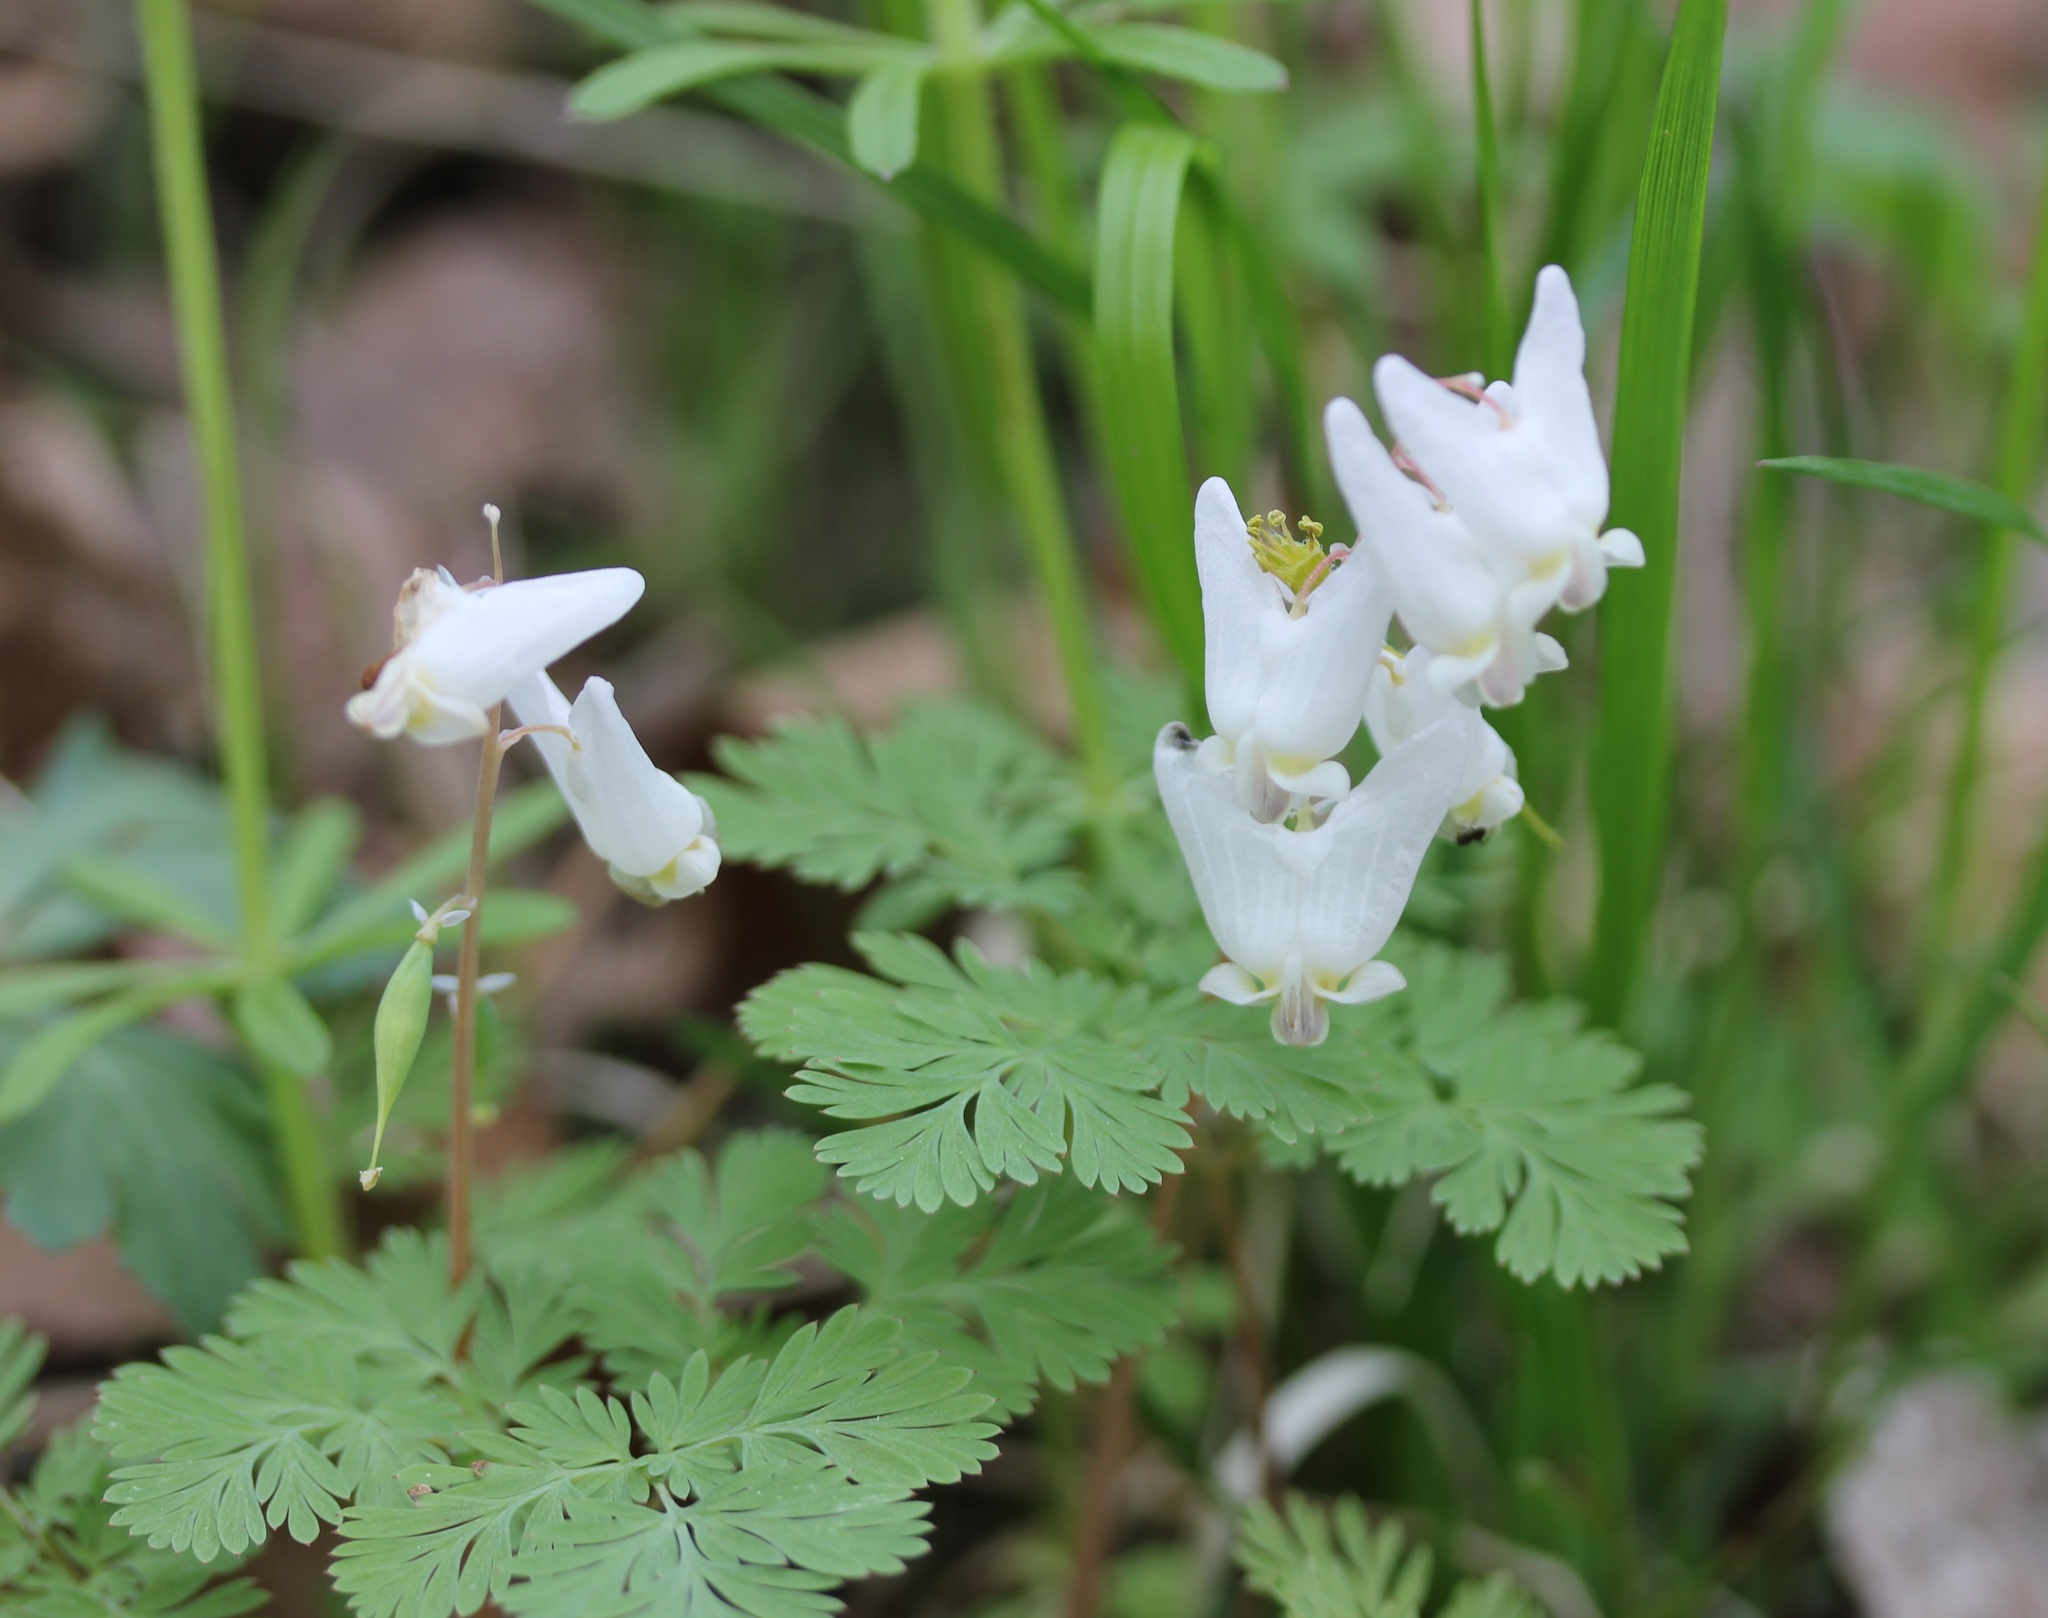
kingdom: Plantae
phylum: Tracheophyta
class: Magnoliopsida
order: Ranunculales
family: Papaveraceae
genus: Dicentra
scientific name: Dicentra cucullaria
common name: Dutchman's breeches
